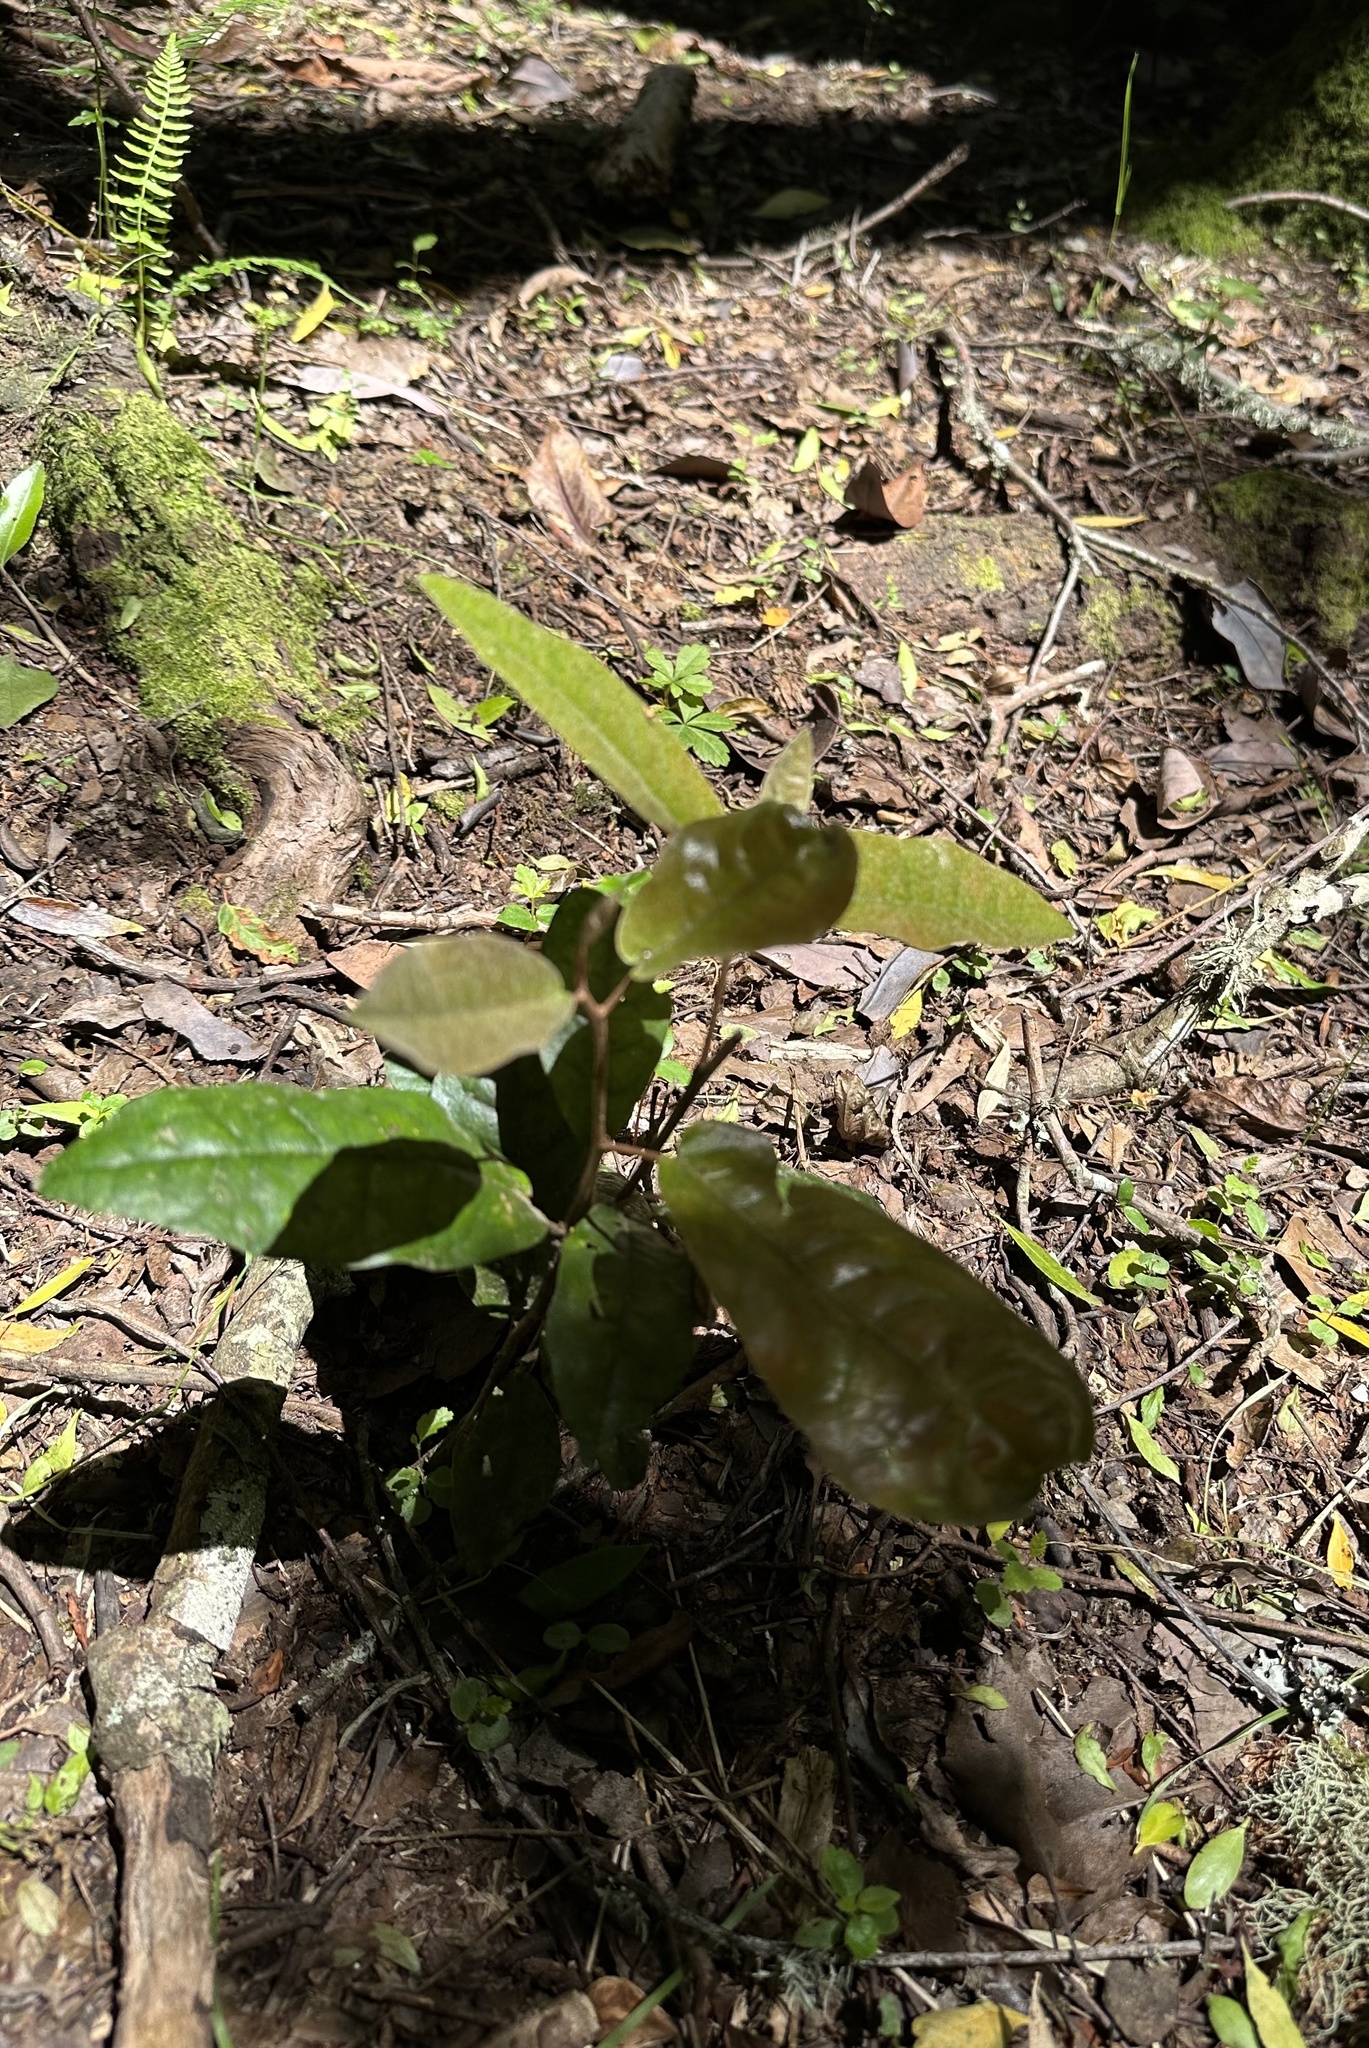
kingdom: Plantae
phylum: Tracheophyta
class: Magnoliopsida
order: Berberidopsidales
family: Aextoxicaceae
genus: Aextoxicon
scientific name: Aextoxicon punctatum
